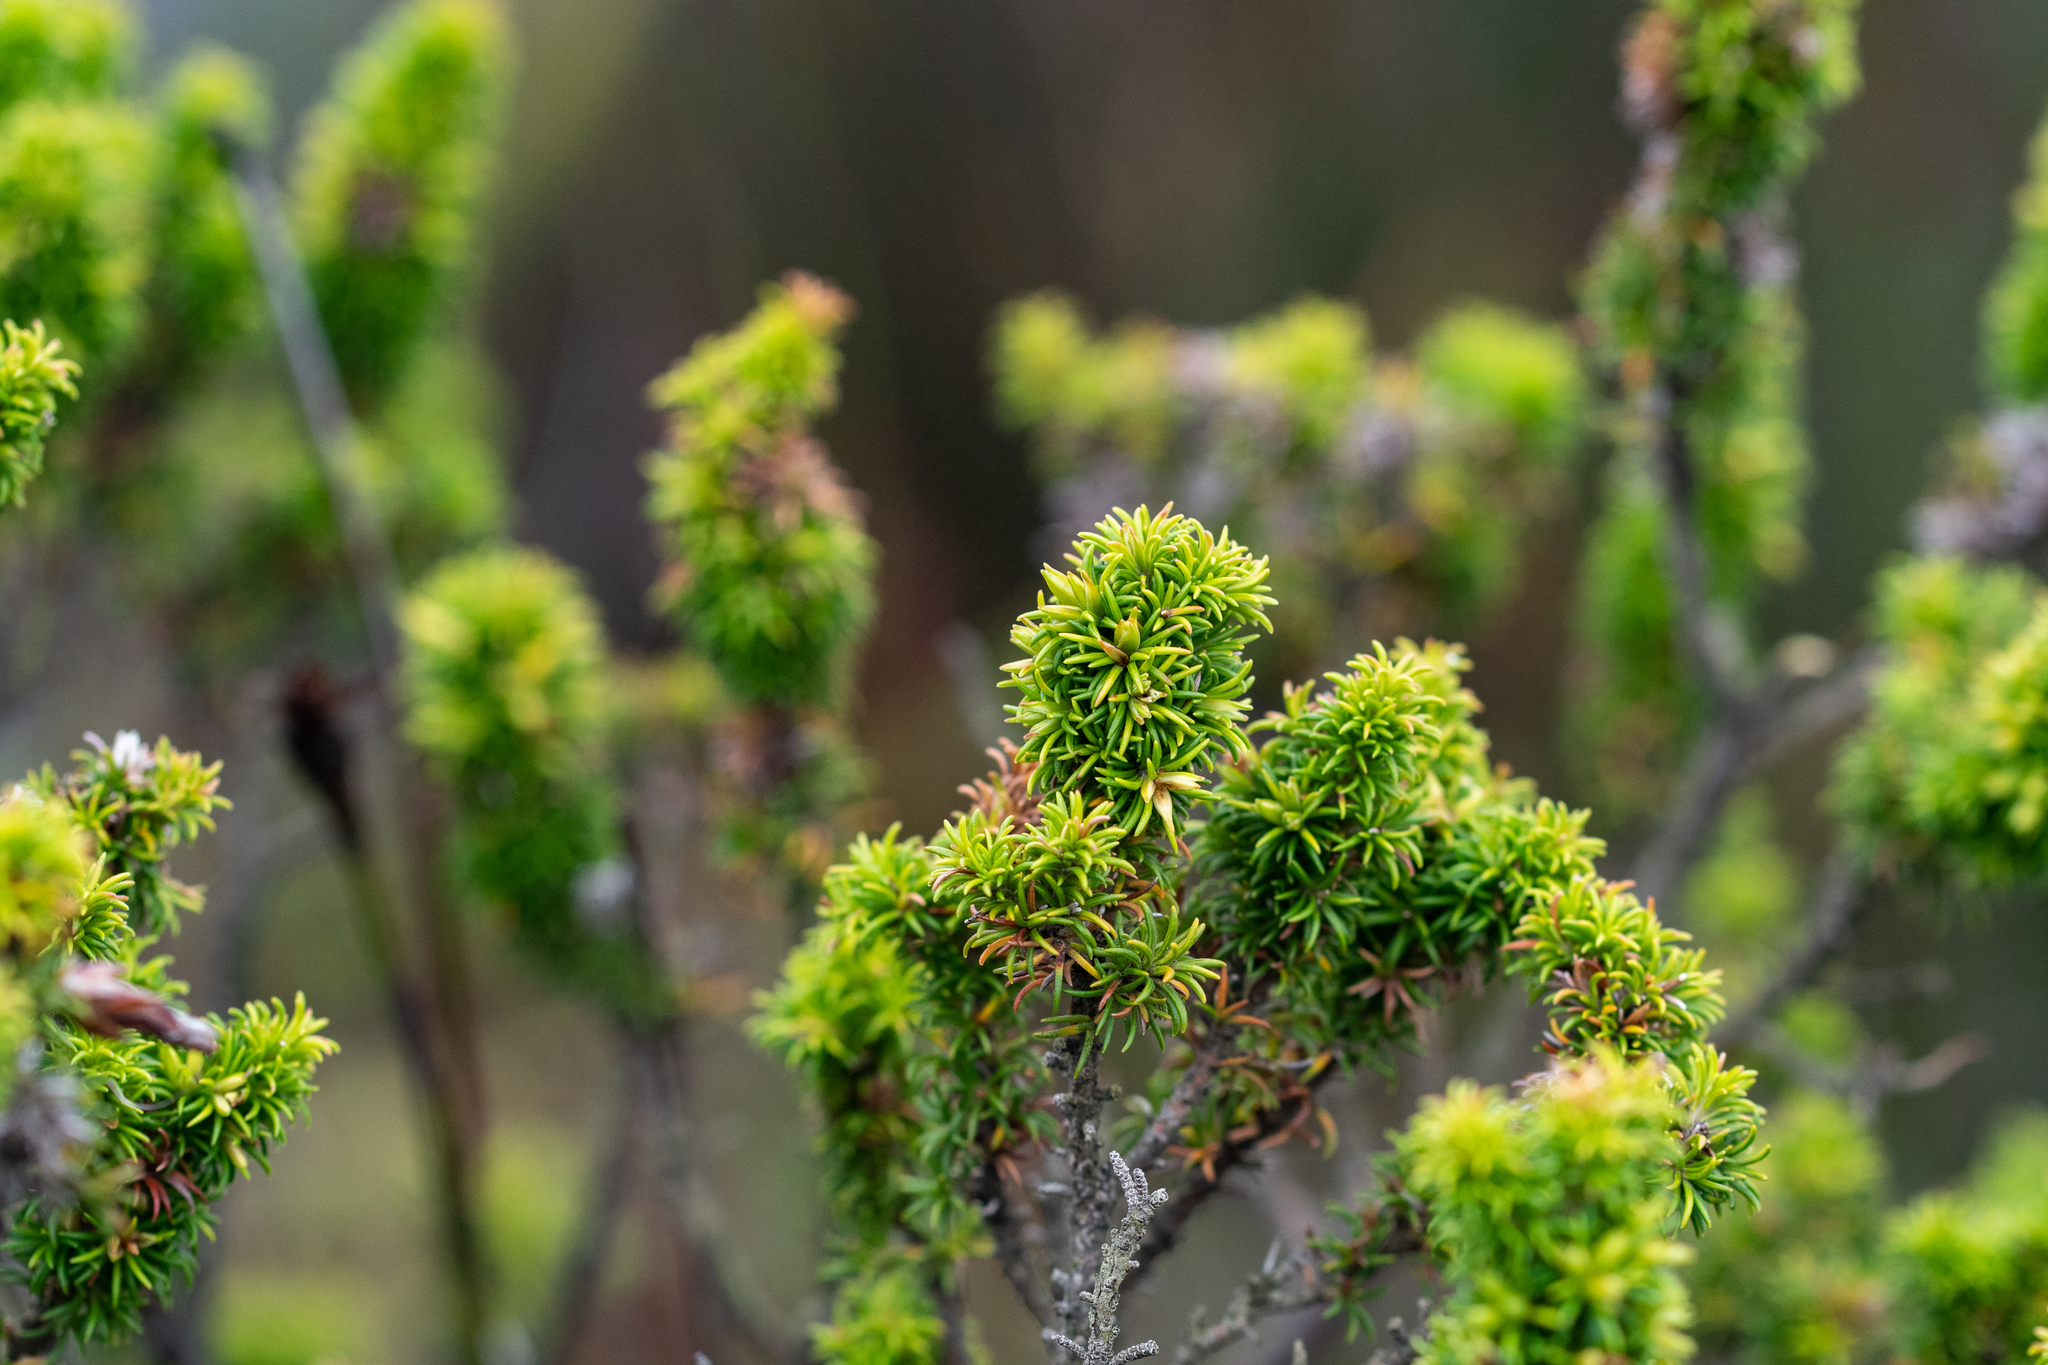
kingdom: Plantae
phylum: Tracheophyta
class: Magnoliopsida
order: Ericales
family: Ericaceae
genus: Erica
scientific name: Erica coccinea
